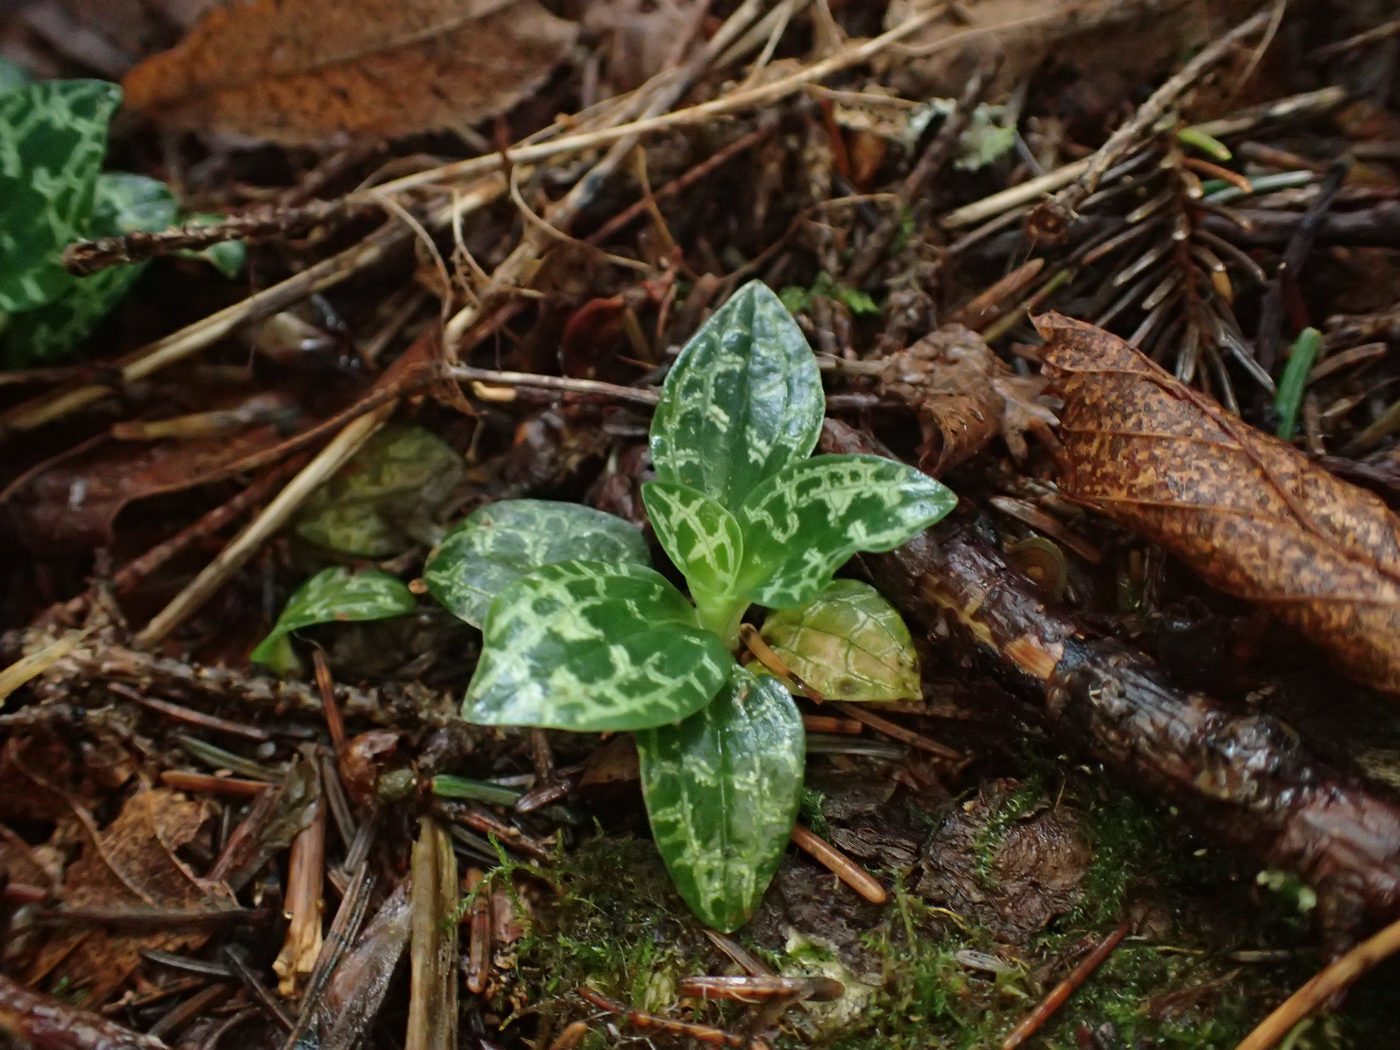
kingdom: Plantae
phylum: Tracheophyta
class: Liliopsida
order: Asparagales
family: Orchidaceae
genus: Goodyera
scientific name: Goodyera repens
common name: Creeping lady's-tresses
